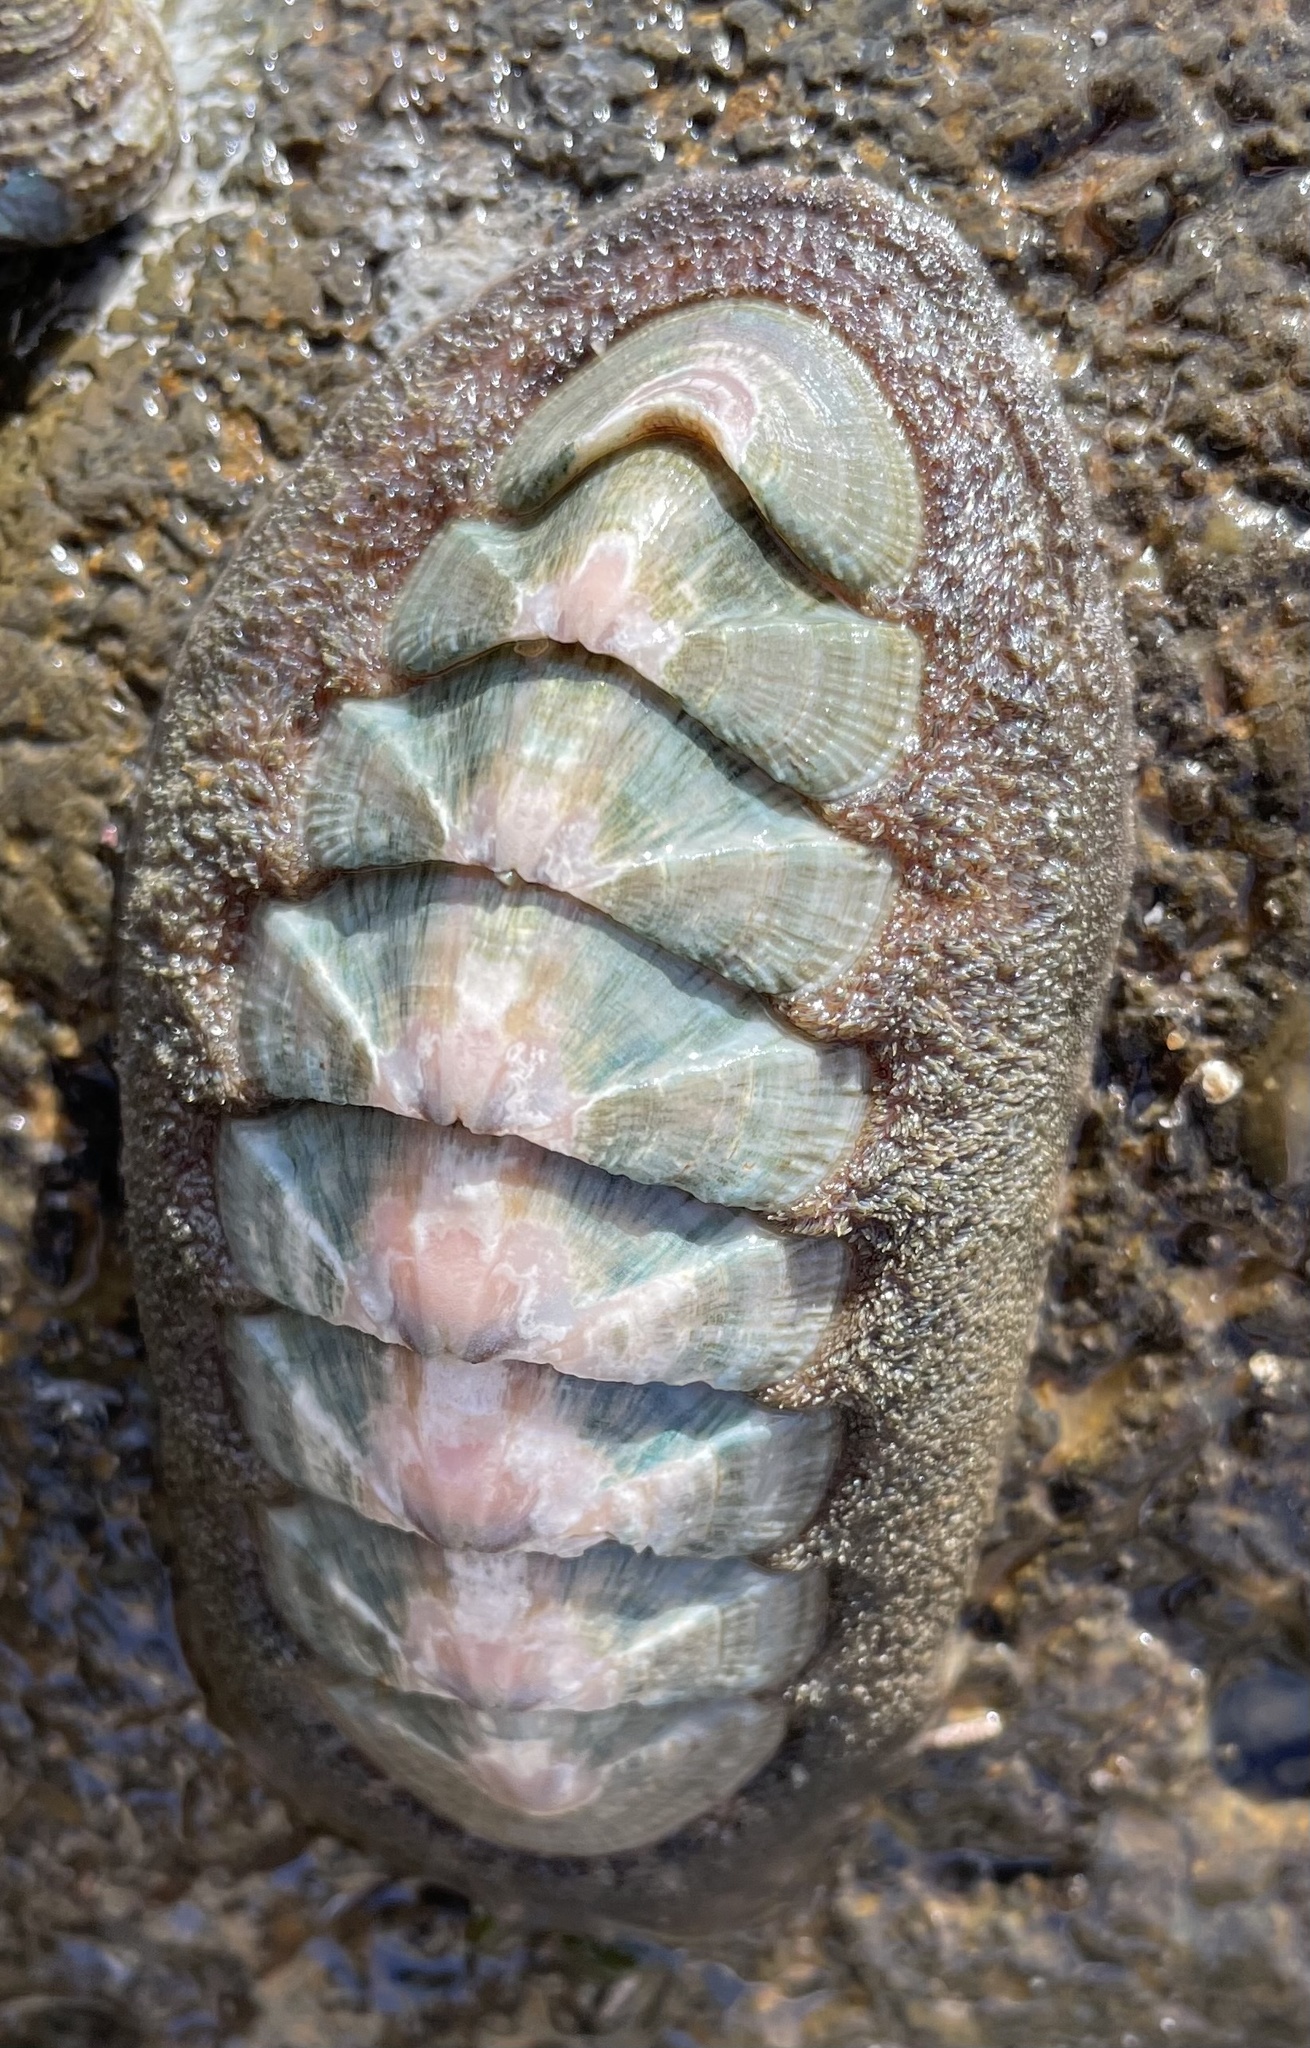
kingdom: Animalia
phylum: Mollusca
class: Polyplacophora
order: Chitonida
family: Ischnochitonidae
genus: Stenoplax
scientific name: Stenoplax conspicua
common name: Conspicuous chiton
